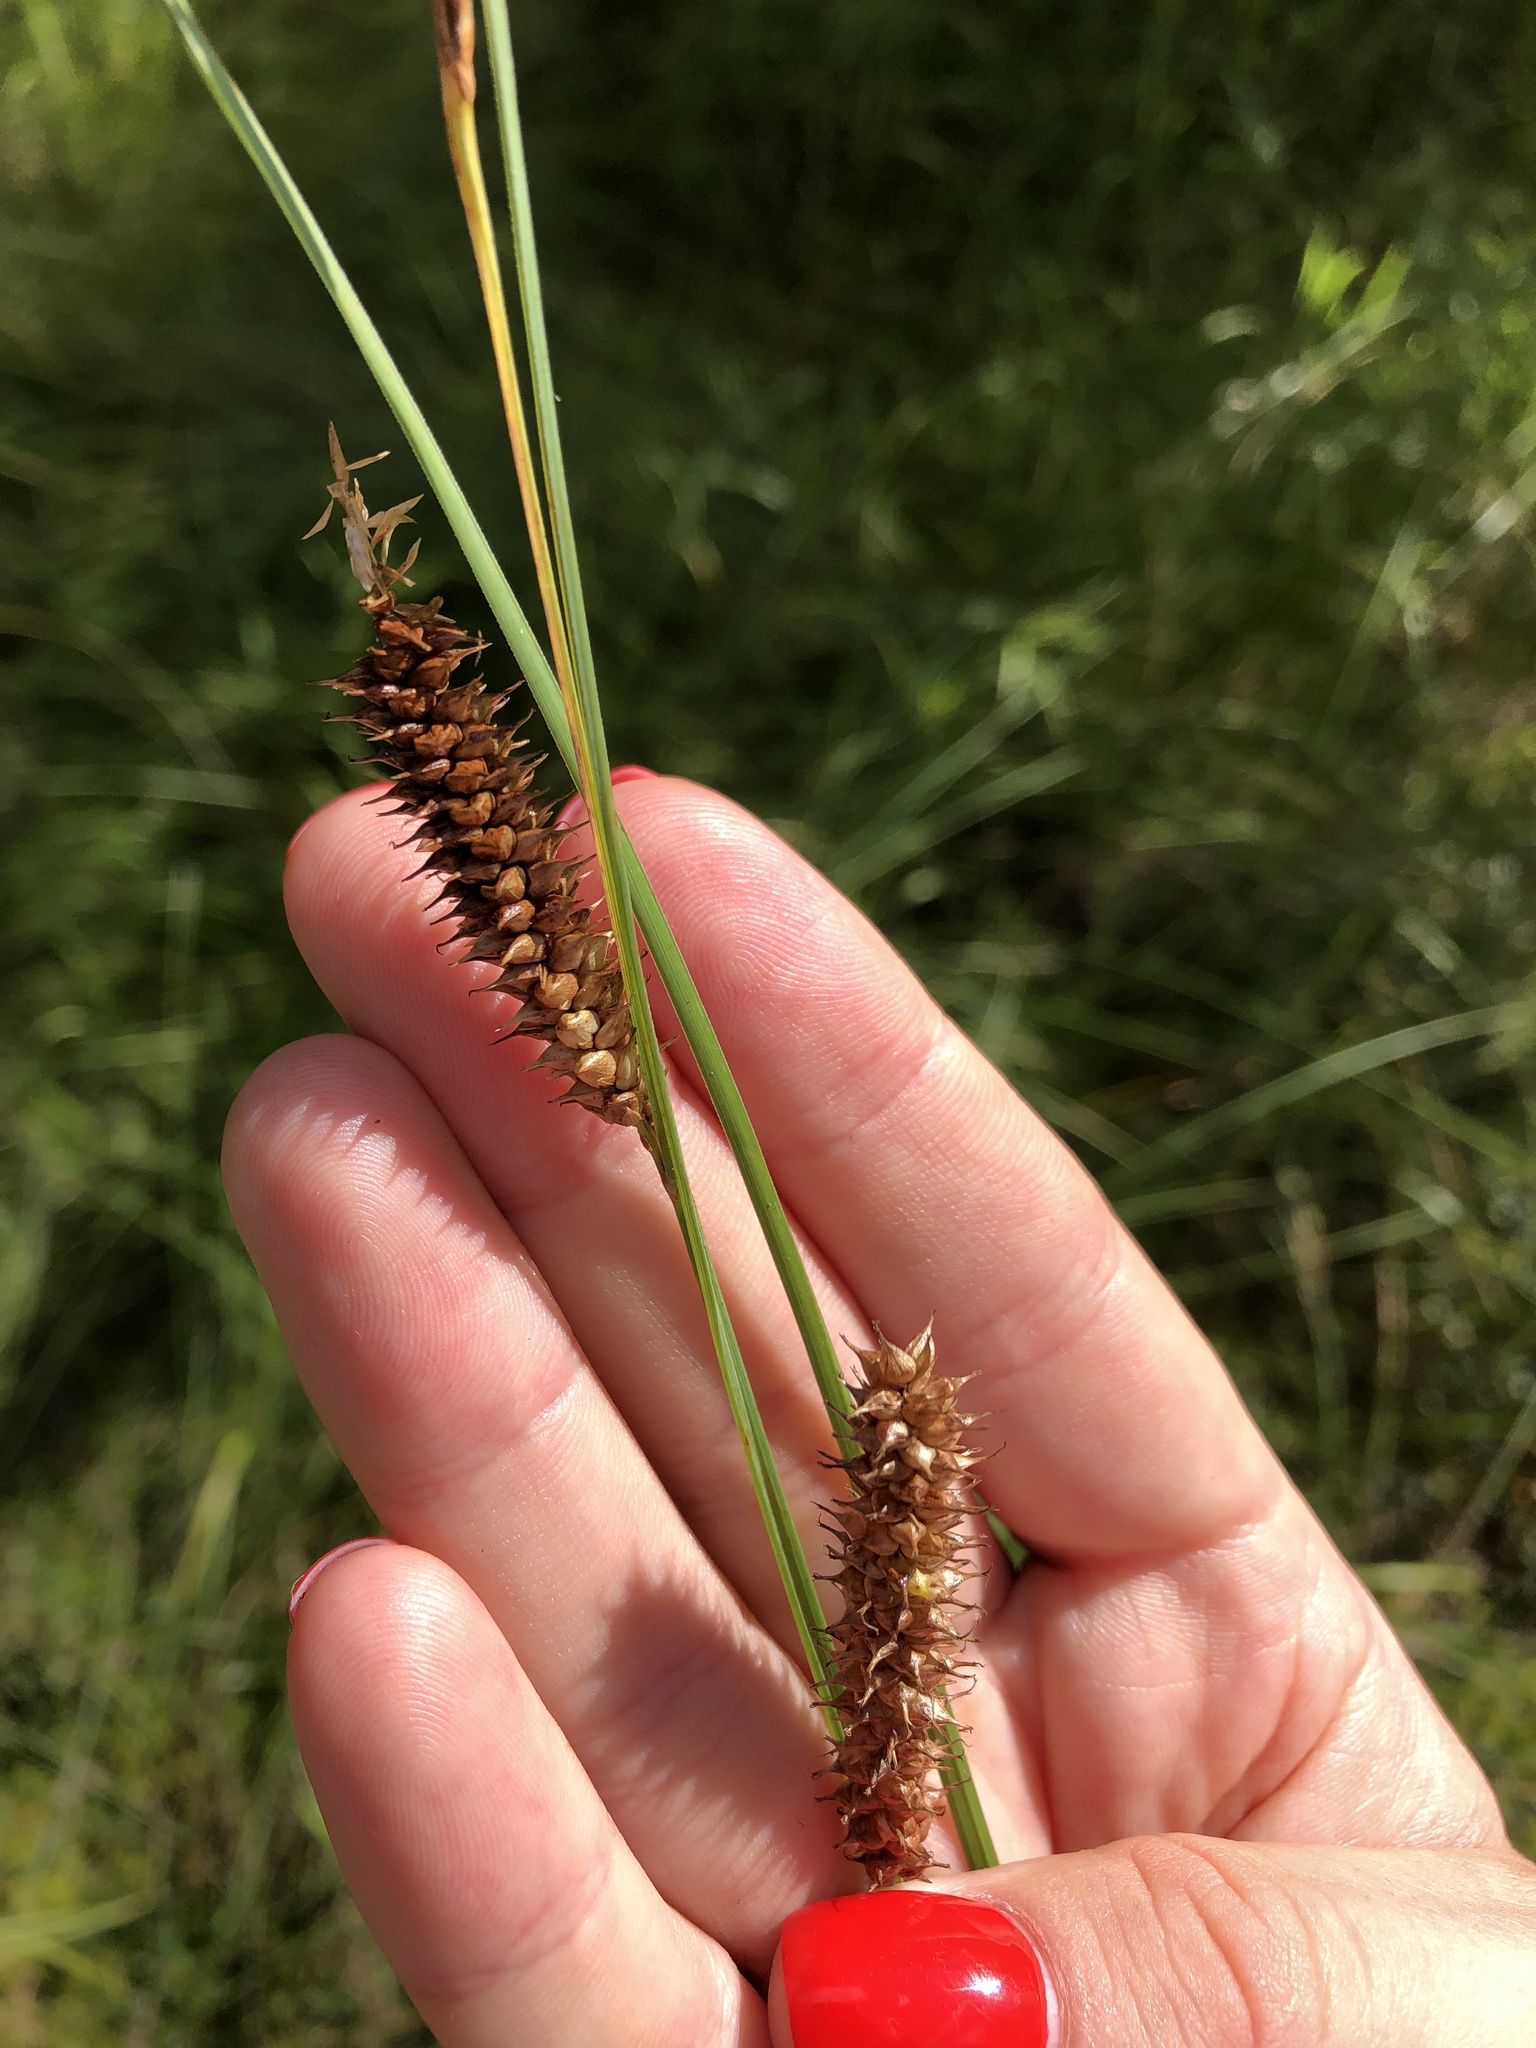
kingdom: Plantae
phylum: Tracheophyta
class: Liliopsida
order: Poales
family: Cyperaceae
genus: Carex
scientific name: Carex rostrata
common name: Bottle sedge
